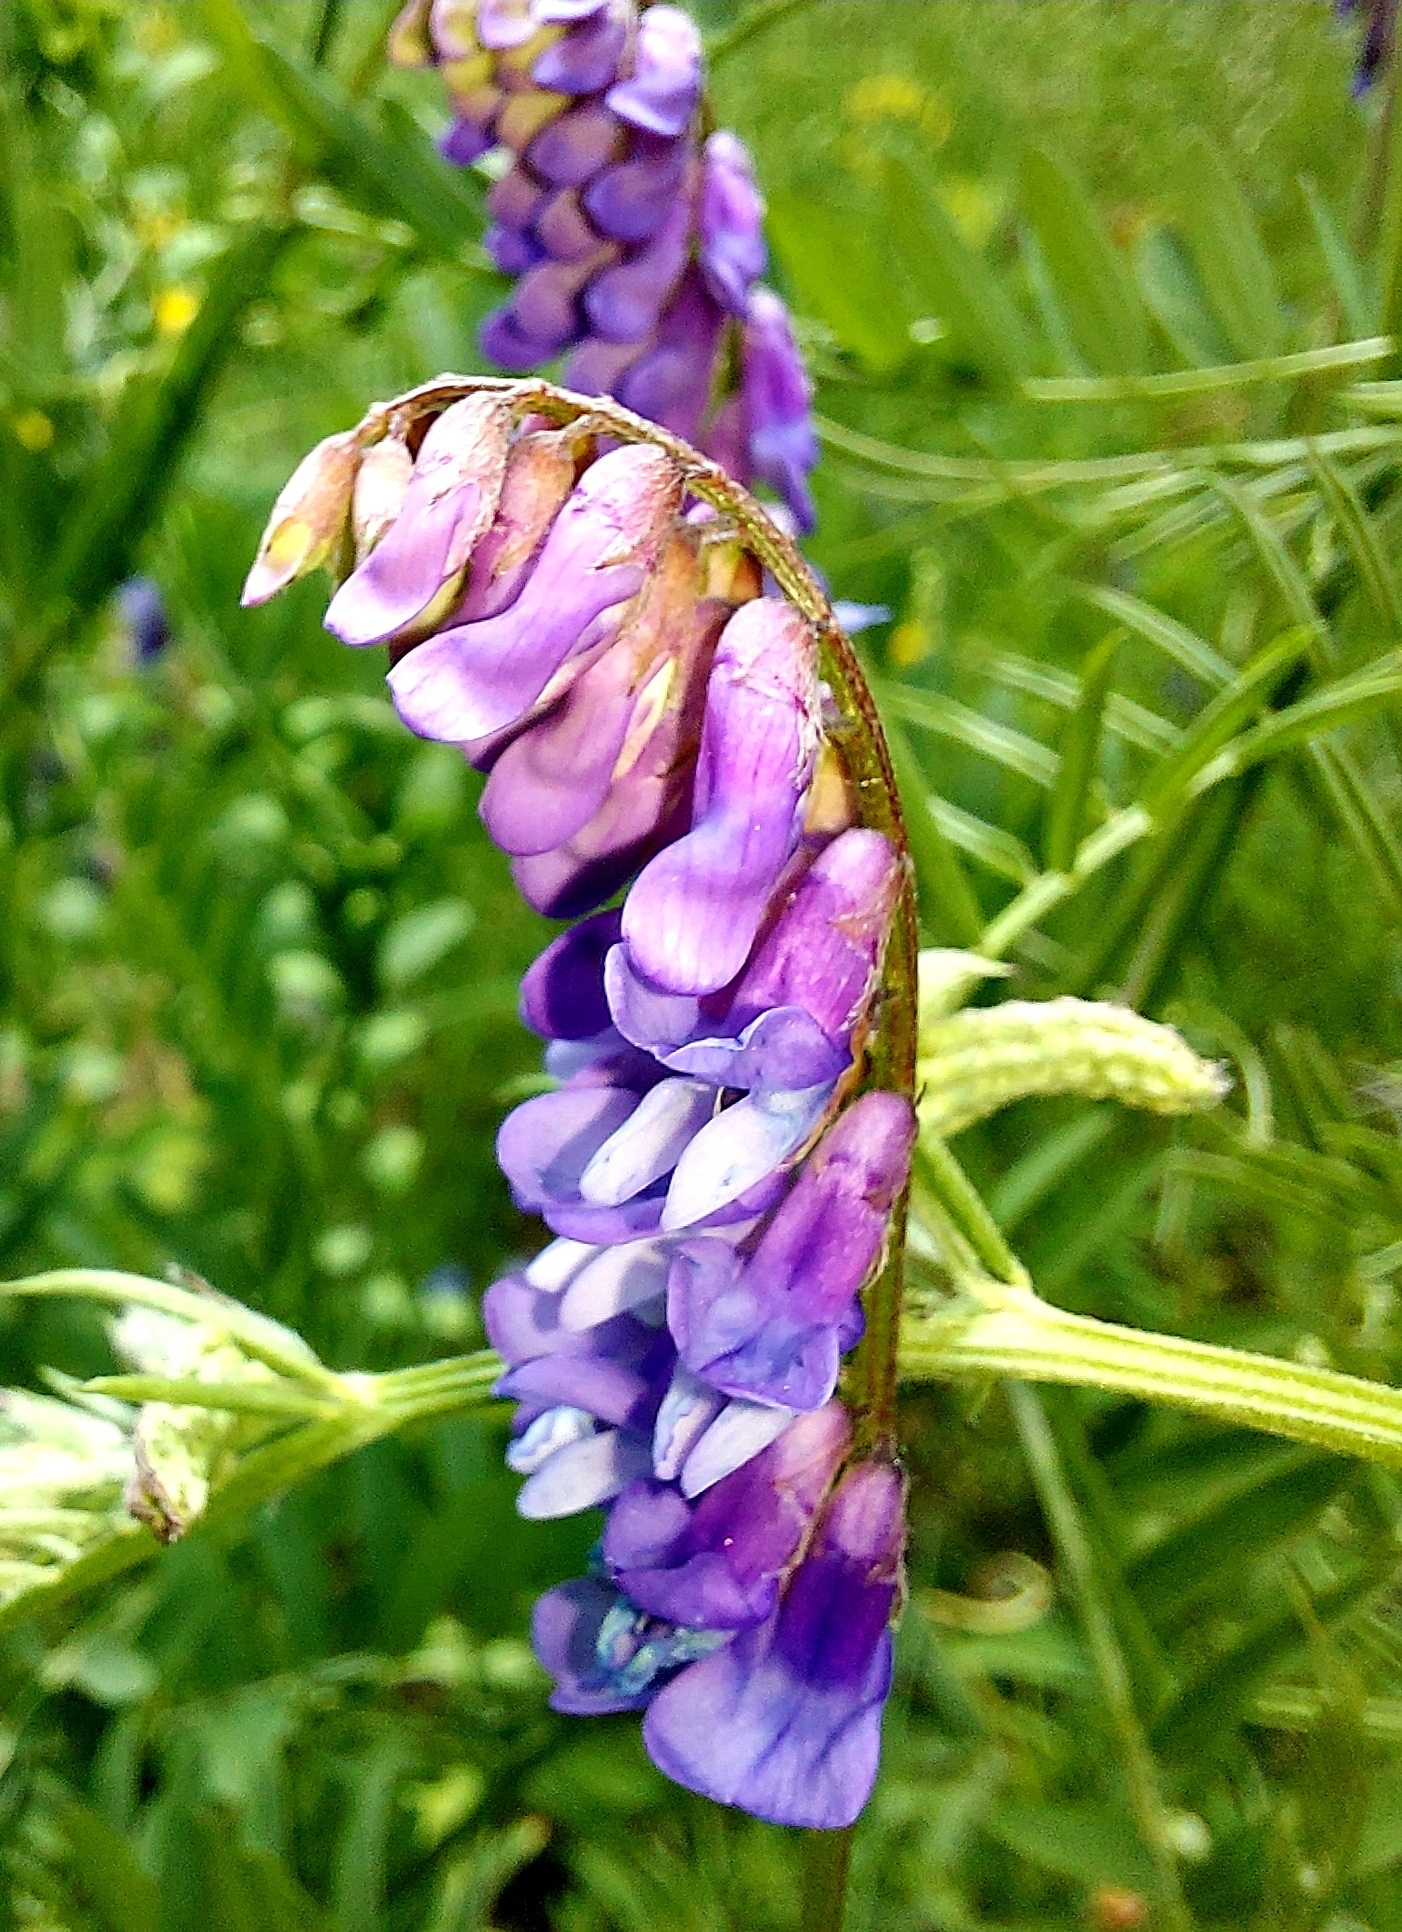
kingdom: Plantae
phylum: Tracheophyta
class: Magnoliopsida
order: Fabales
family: Fabaceae
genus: Vicia
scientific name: Vicia cracca
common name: Bird vetch
